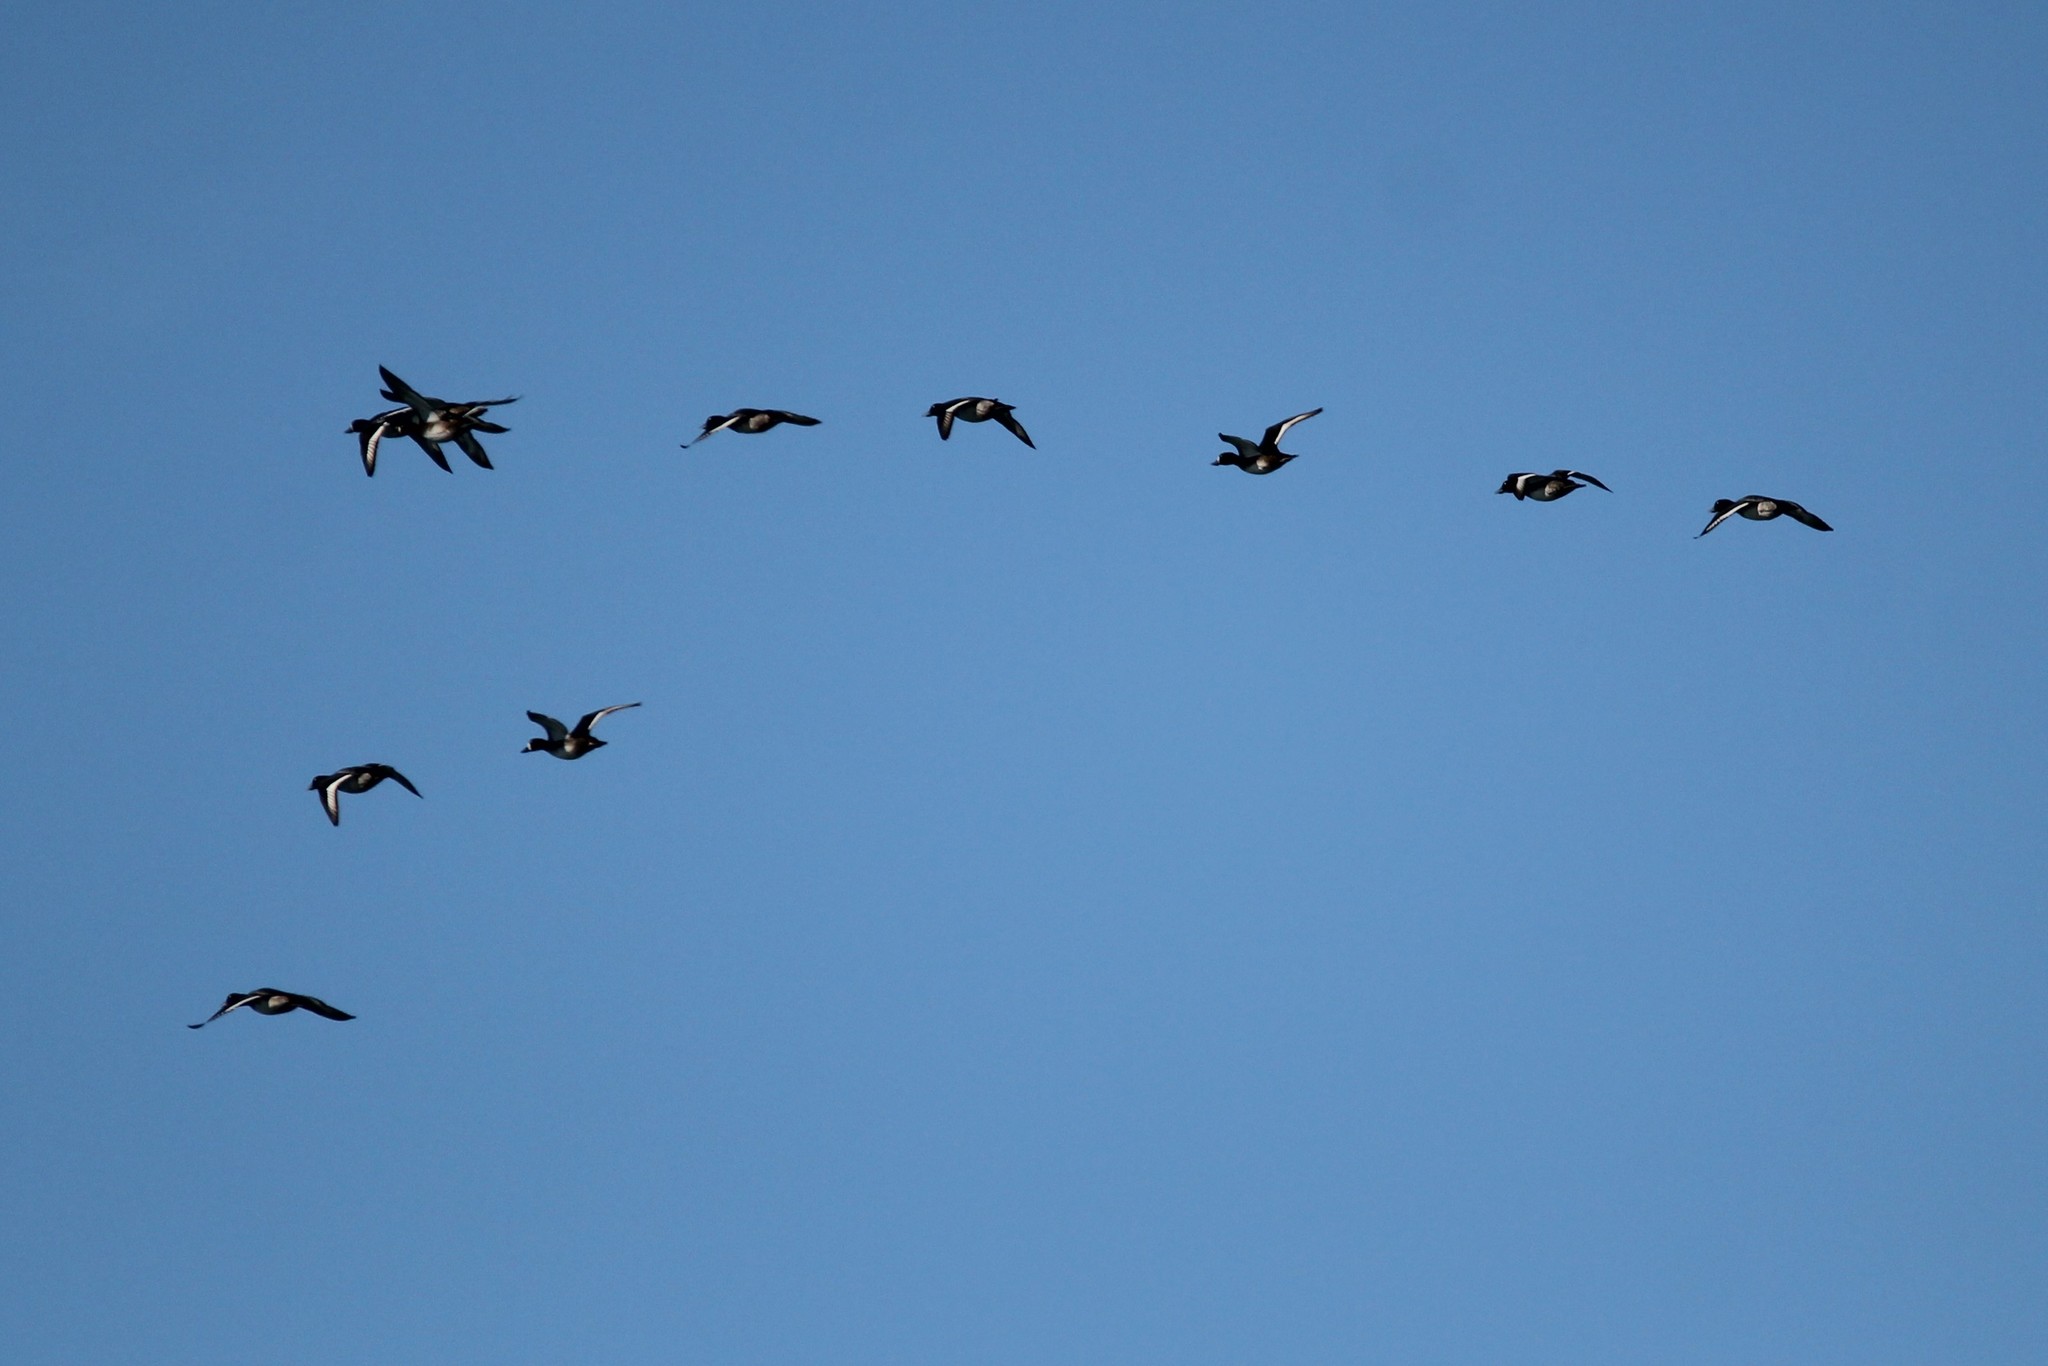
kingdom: Animalia
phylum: Chordata
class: Aves
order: Anseriformes
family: Anatidae
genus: Aythya
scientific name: Aythya marila
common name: Greater scaup
